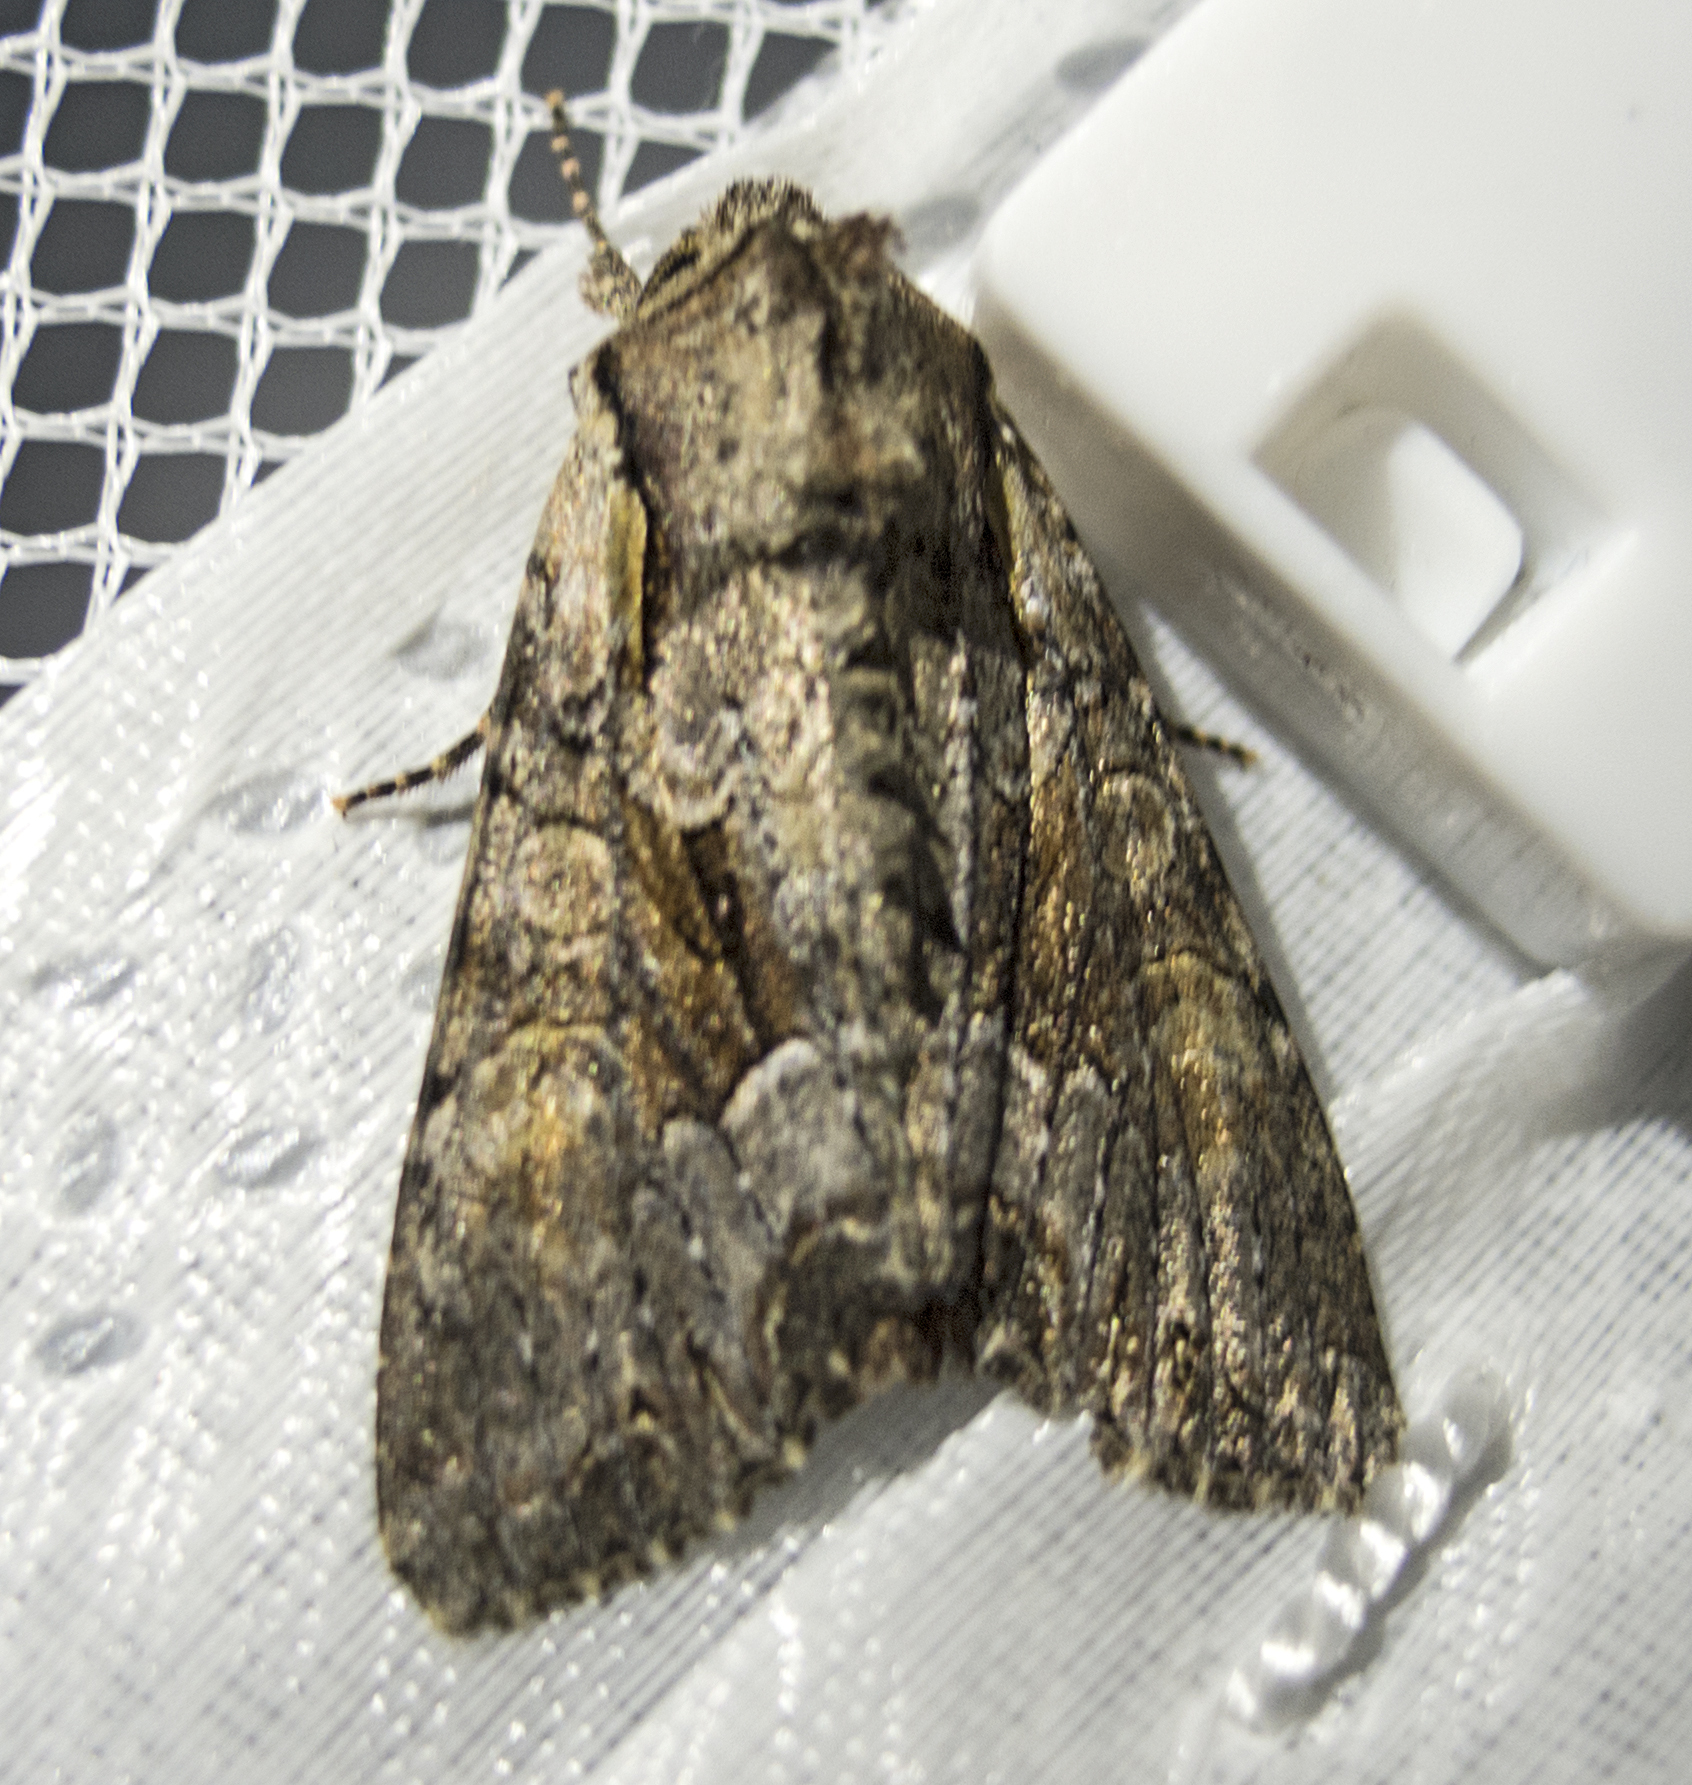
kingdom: Animalia
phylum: Arthropoda
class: Insecta
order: Lepidoptera
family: Noctuidae
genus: Lacanobia
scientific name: Lacanobia w-latinum
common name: Light brocade
